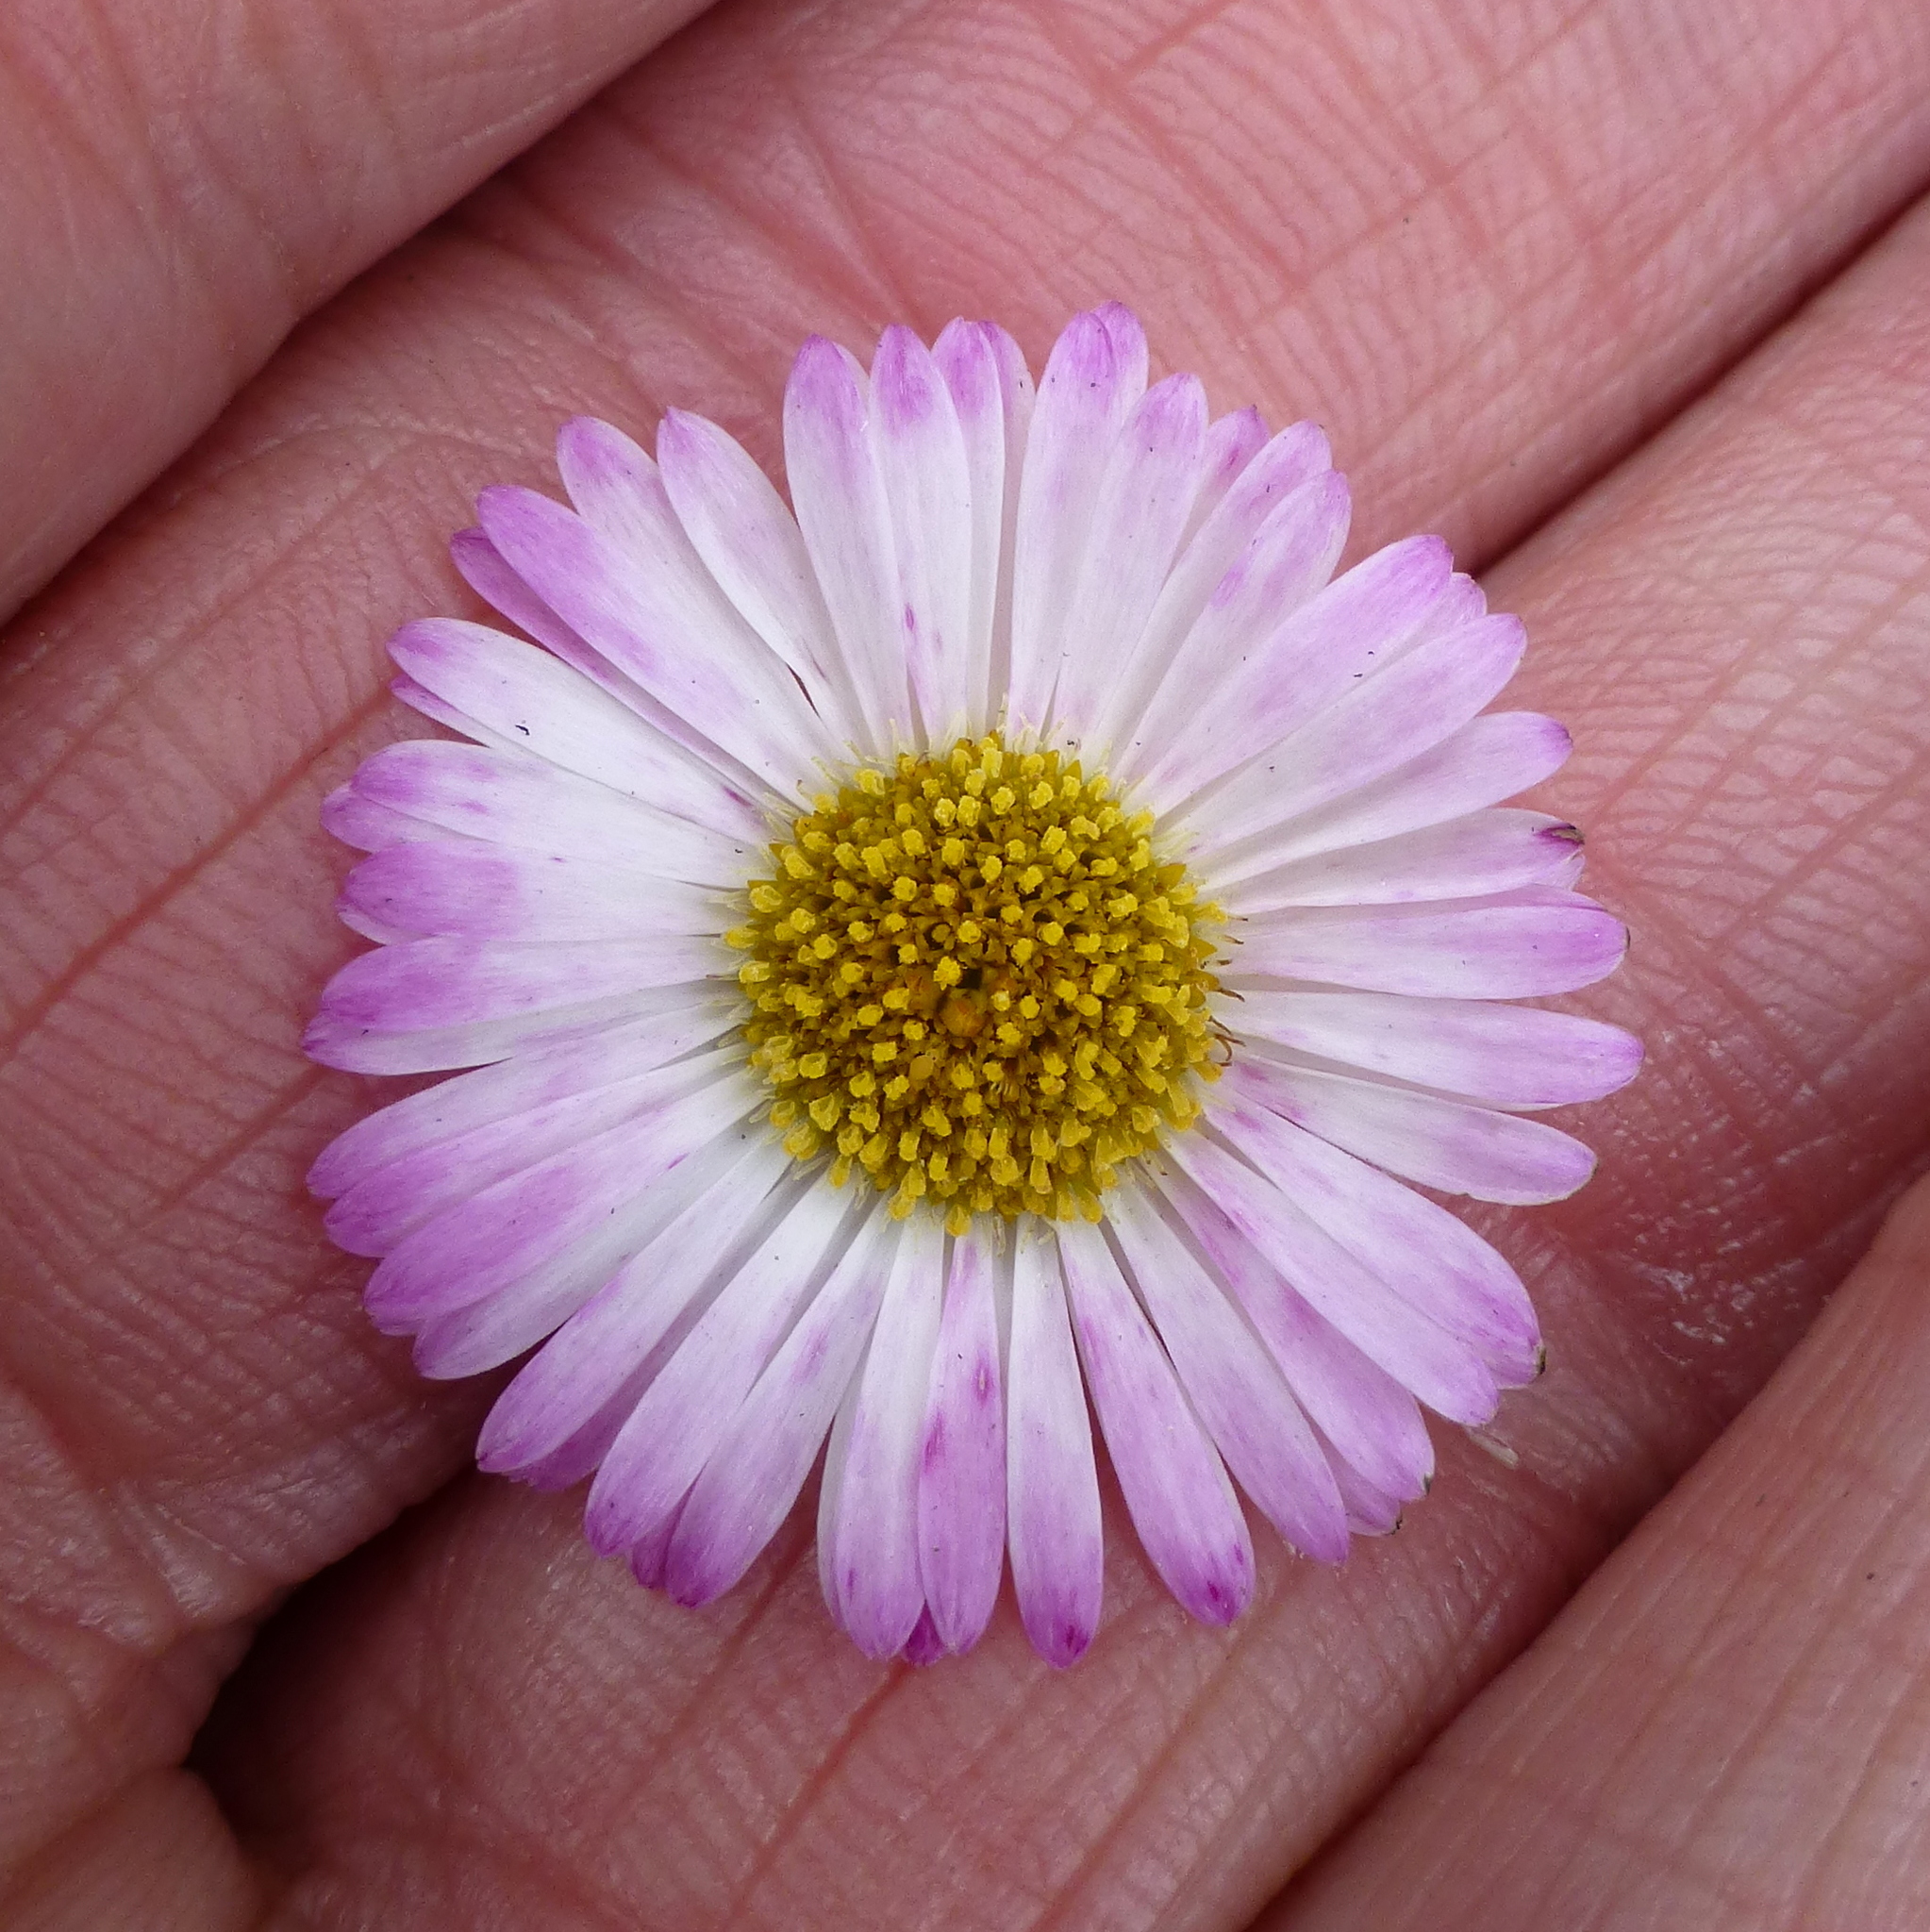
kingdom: Plantae
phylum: Tracheophyta
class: Magnoliopsida
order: Asterales
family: Asteraceae
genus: Erigeron
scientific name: Erigeron karvinskianus
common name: Mexican fleabane
